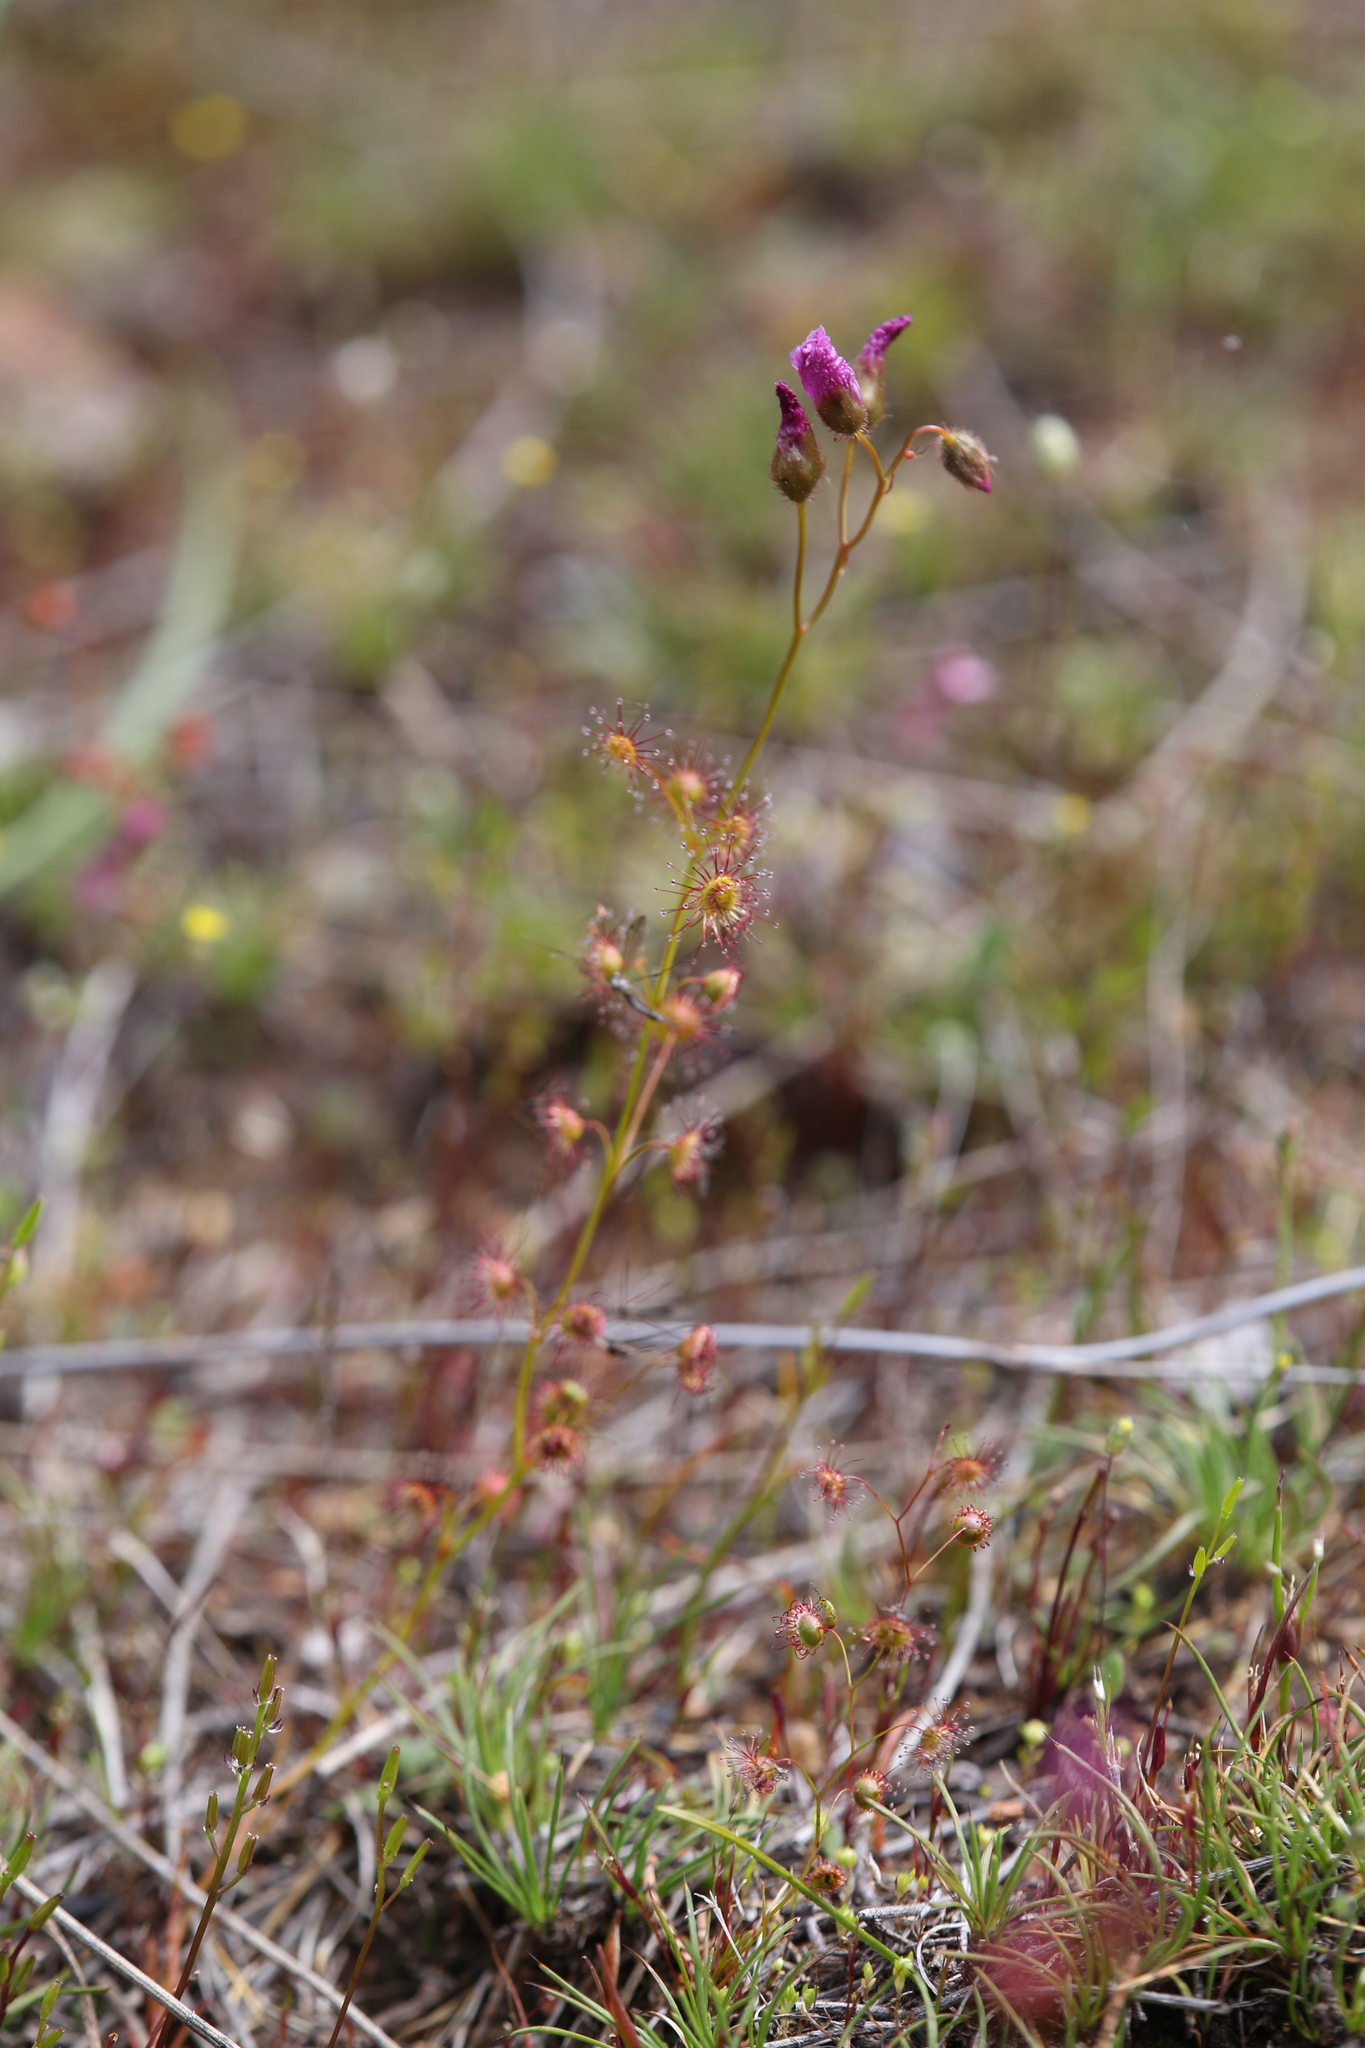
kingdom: Plantae
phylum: Tracheophyta
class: Magnoliopsida
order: Caryophyllales
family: Droseraceae
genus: Drosera
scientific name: Drosera menziesii
